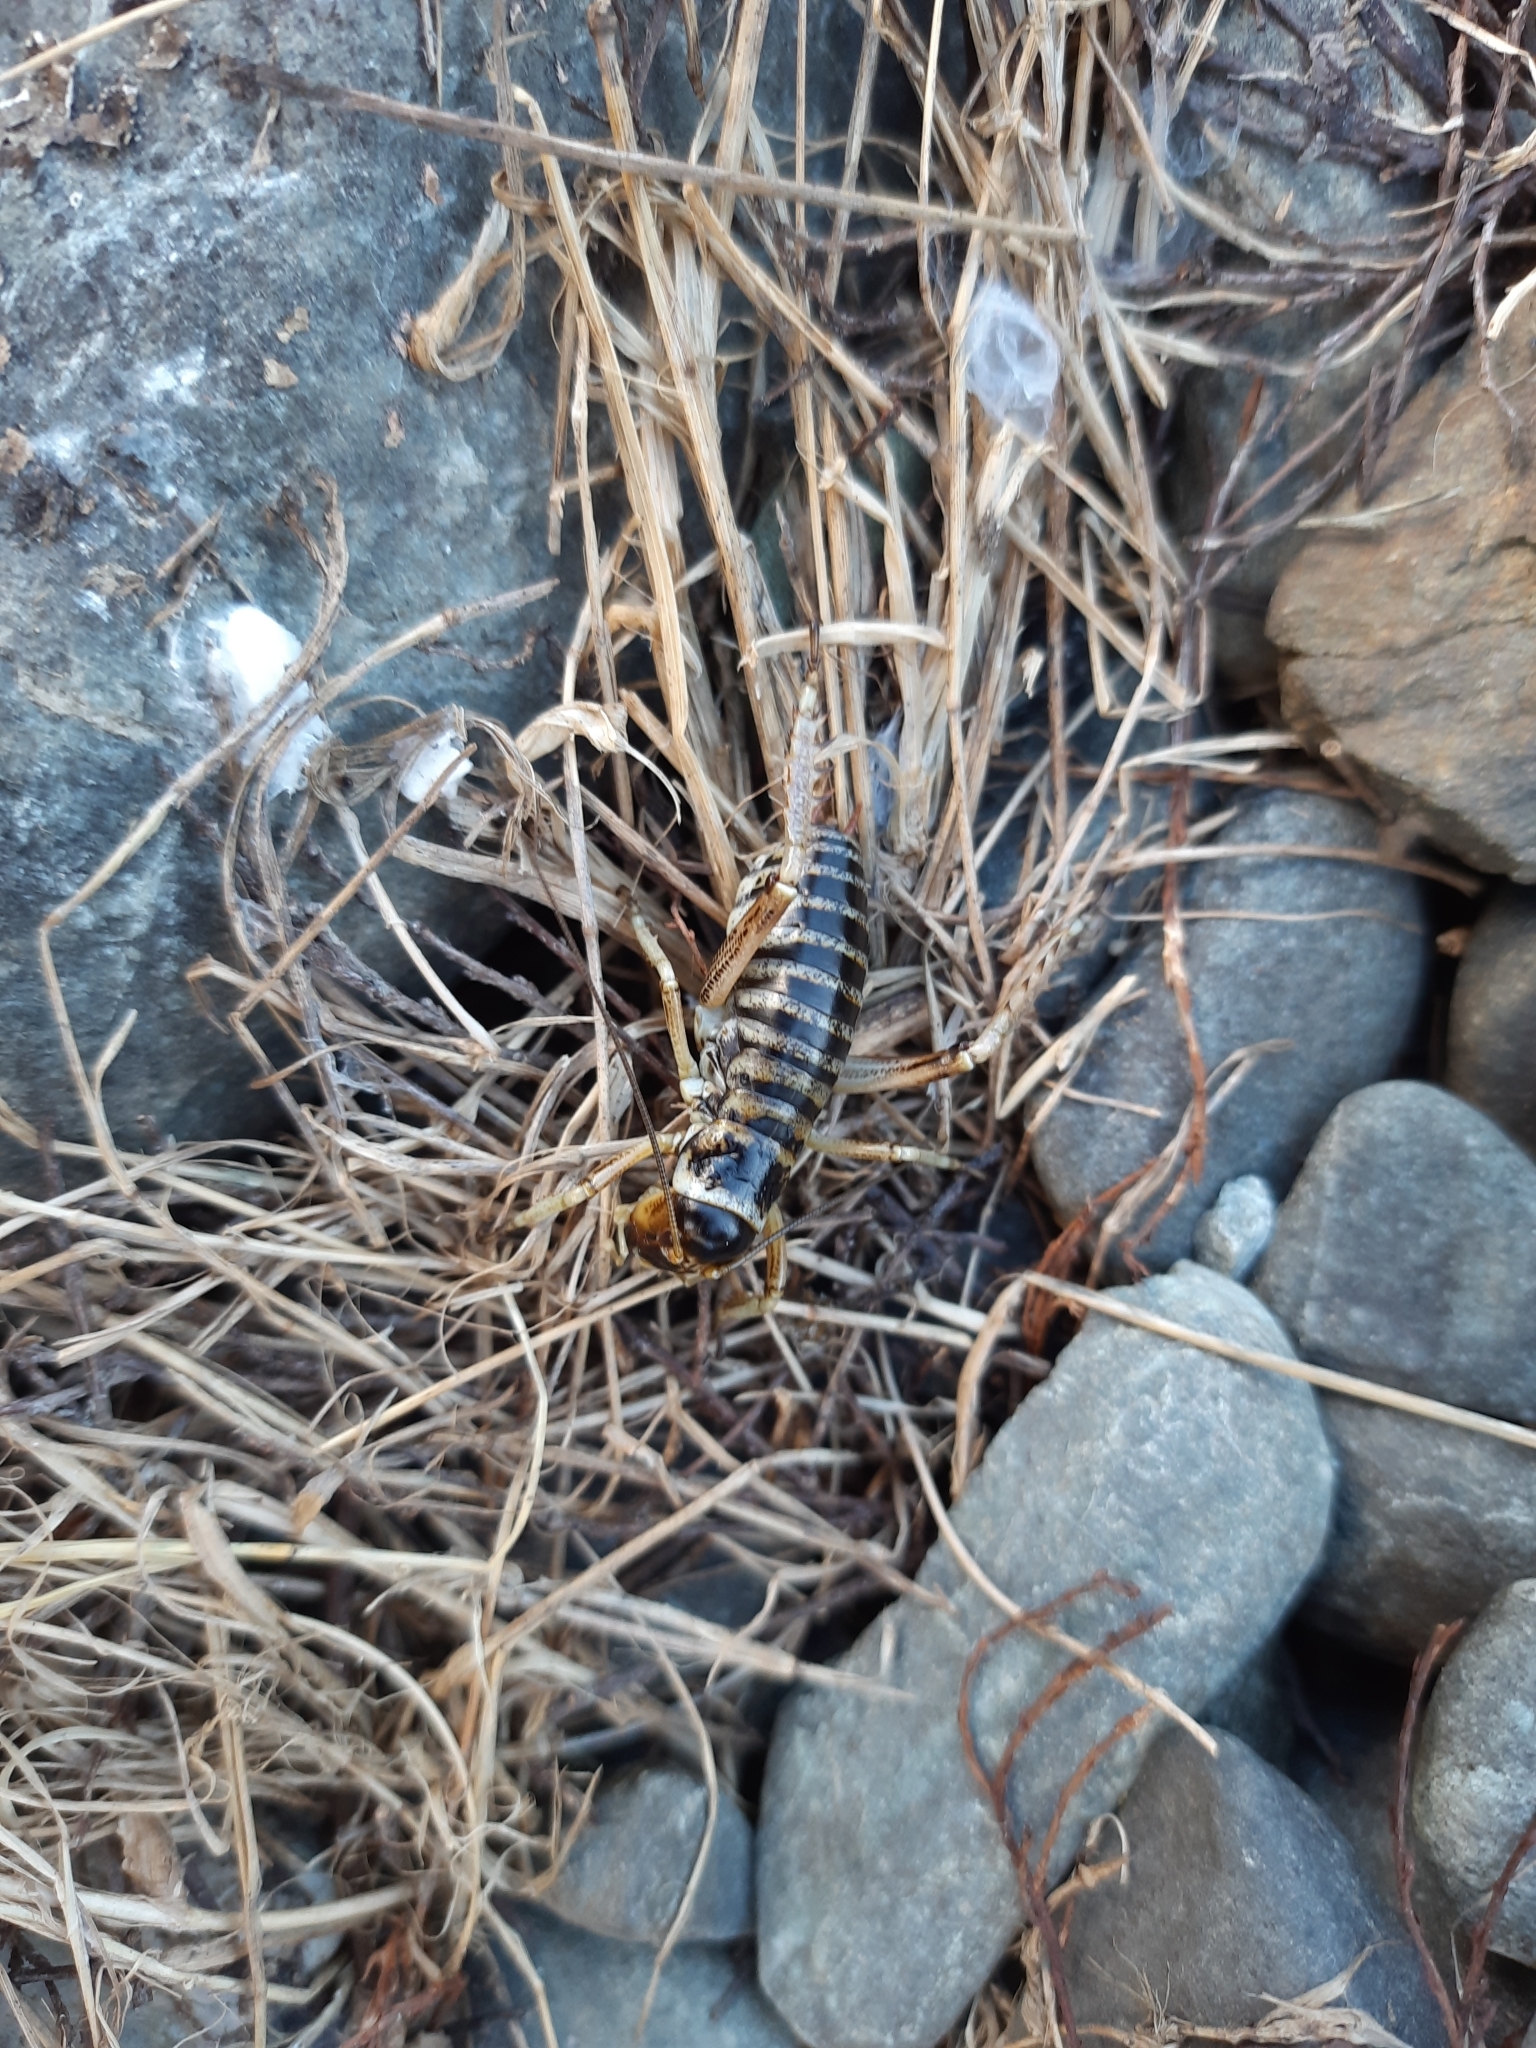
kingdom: Animalia
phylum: Arthropoda
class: Insecta
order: Orthoptera
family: Anostostomatidae
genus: Hemideina
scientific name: Hemideina maori
